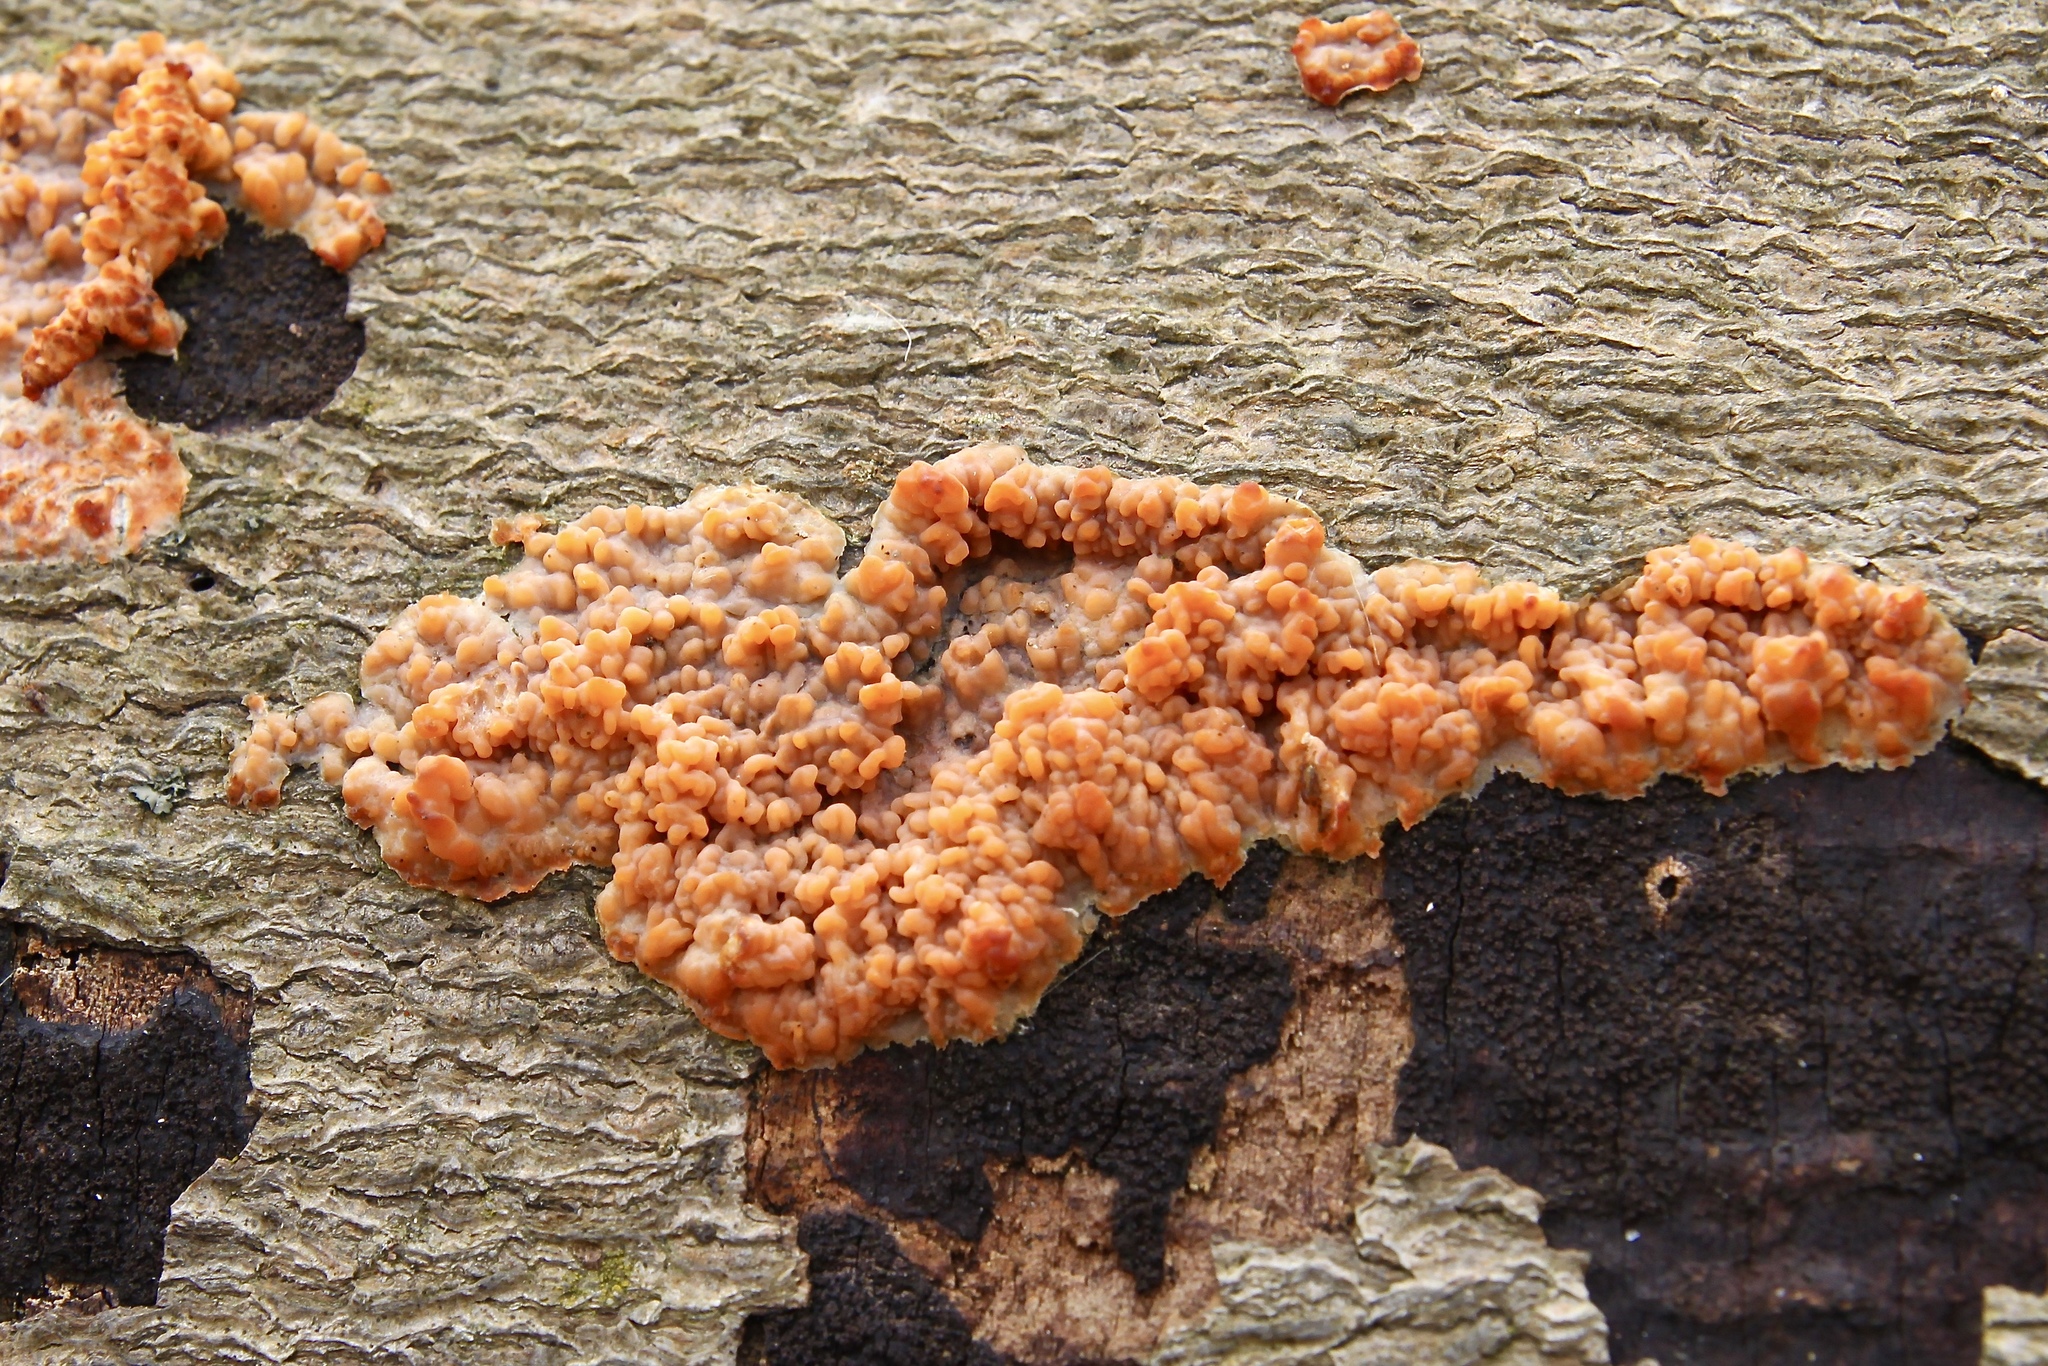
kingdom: Fungi
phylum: Basidiomycota
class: Agaricomycetes
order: Polyporales
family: Meruliaceae
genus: Phlebia
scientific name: Phlebia radiata
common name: Wrinkled crust
